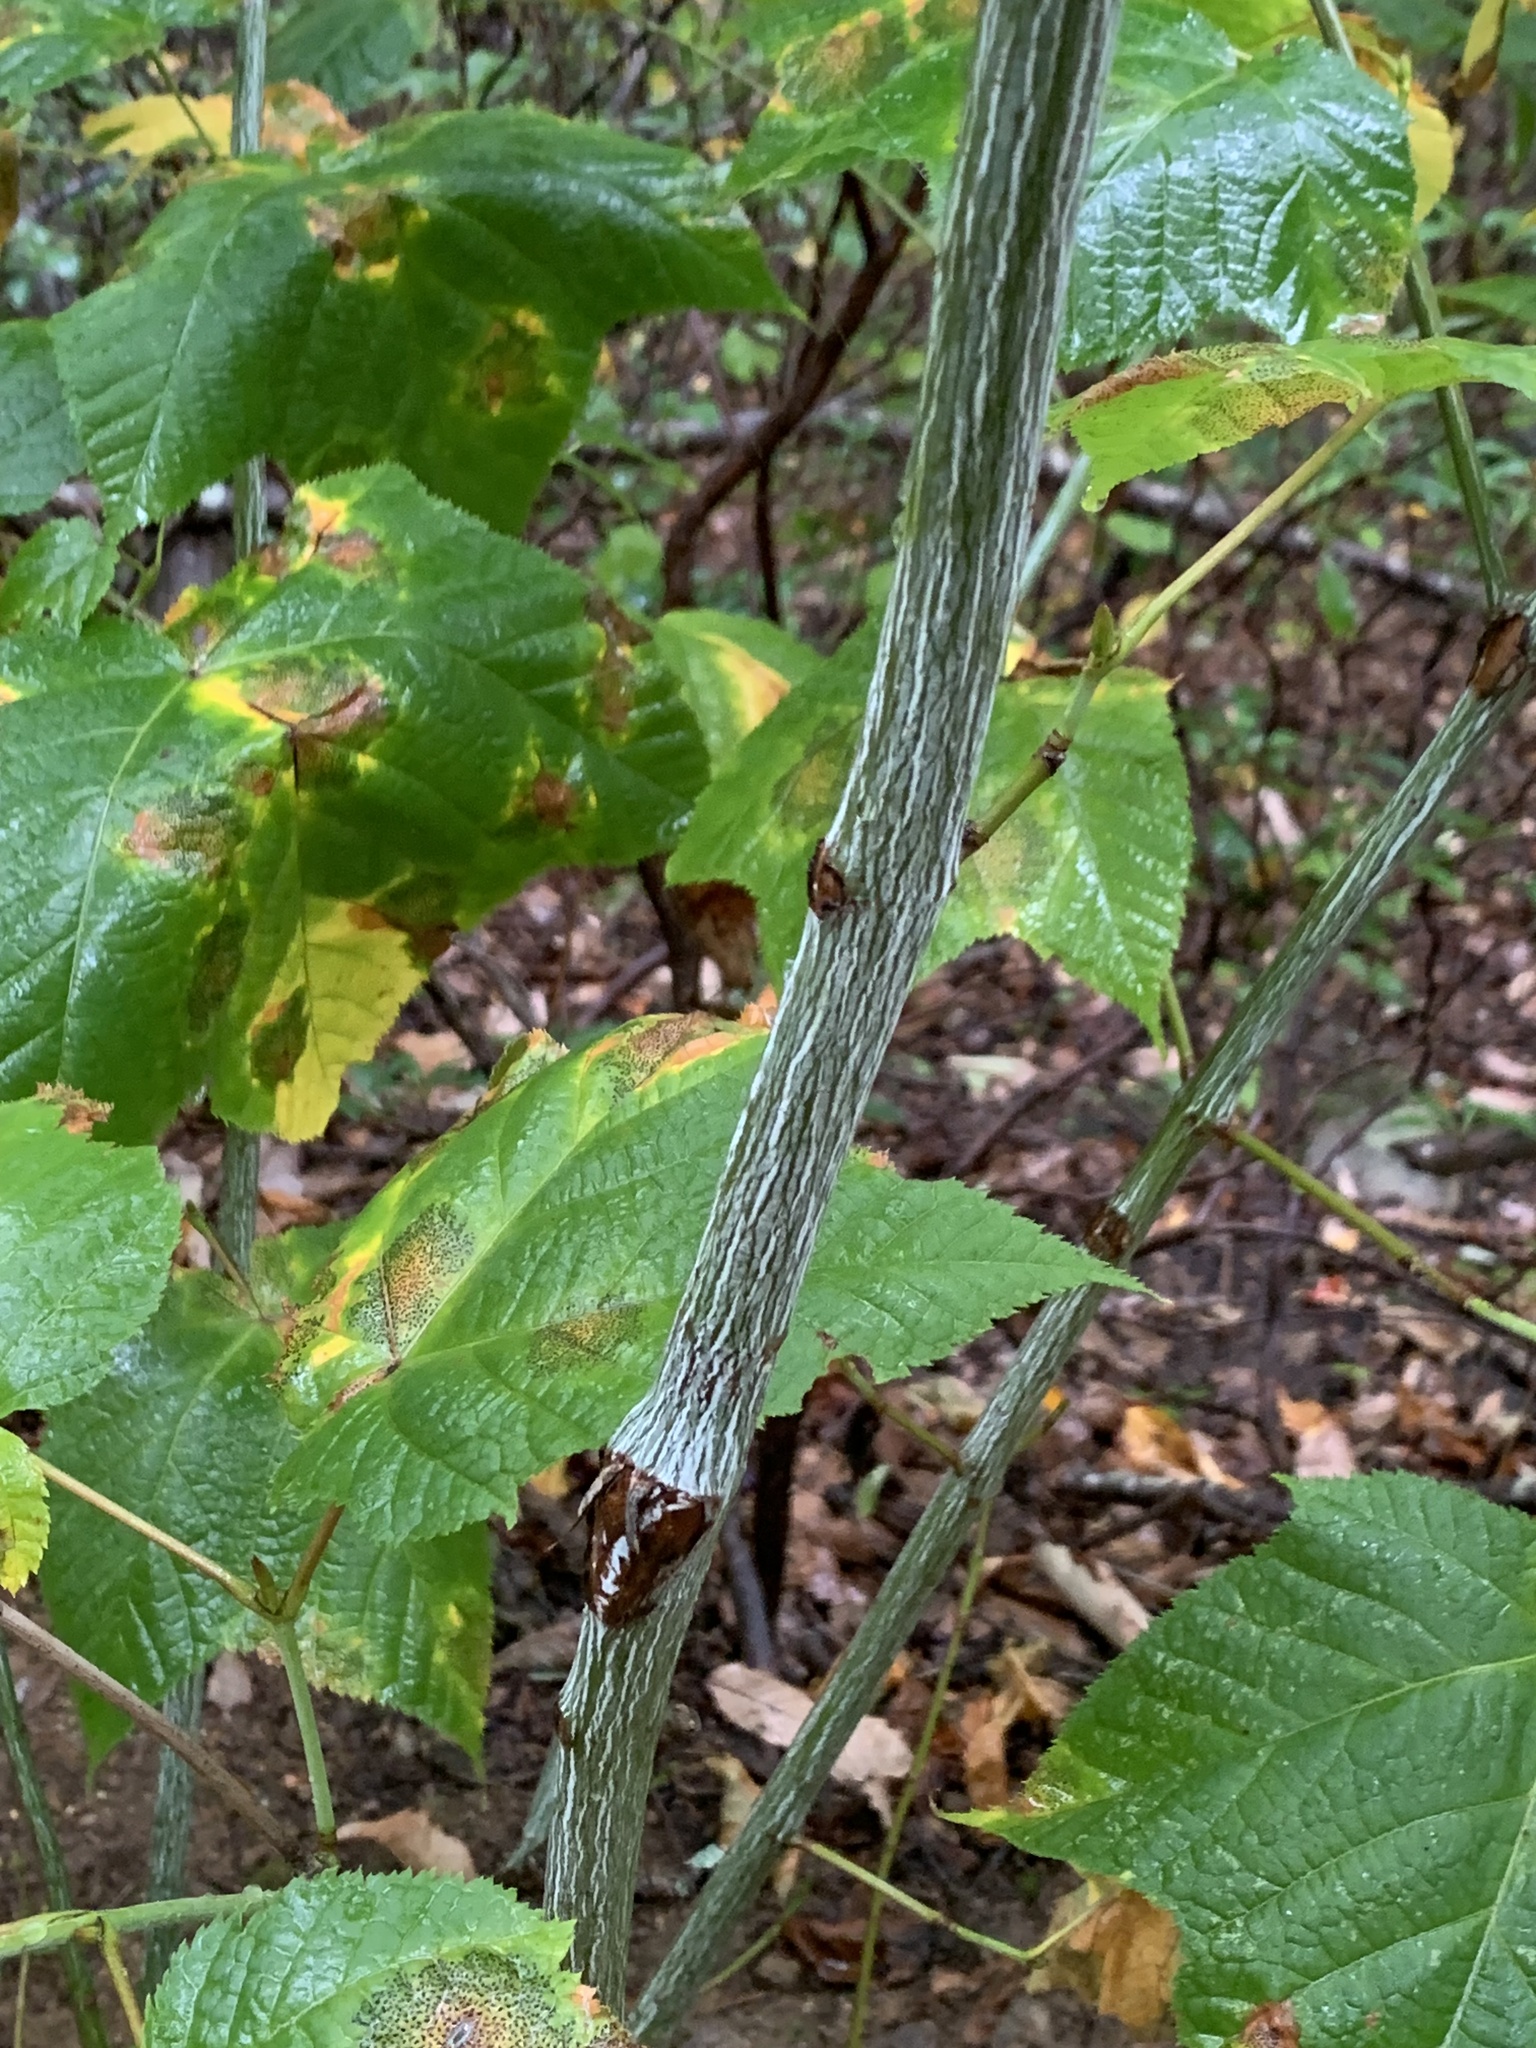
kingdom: Plantae
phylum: Tracheophyta
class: Magnoliopsida
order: Sapindales
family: Sapindaceae
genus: Acer
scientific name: Acer pensylvanicum
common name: Moosewood
